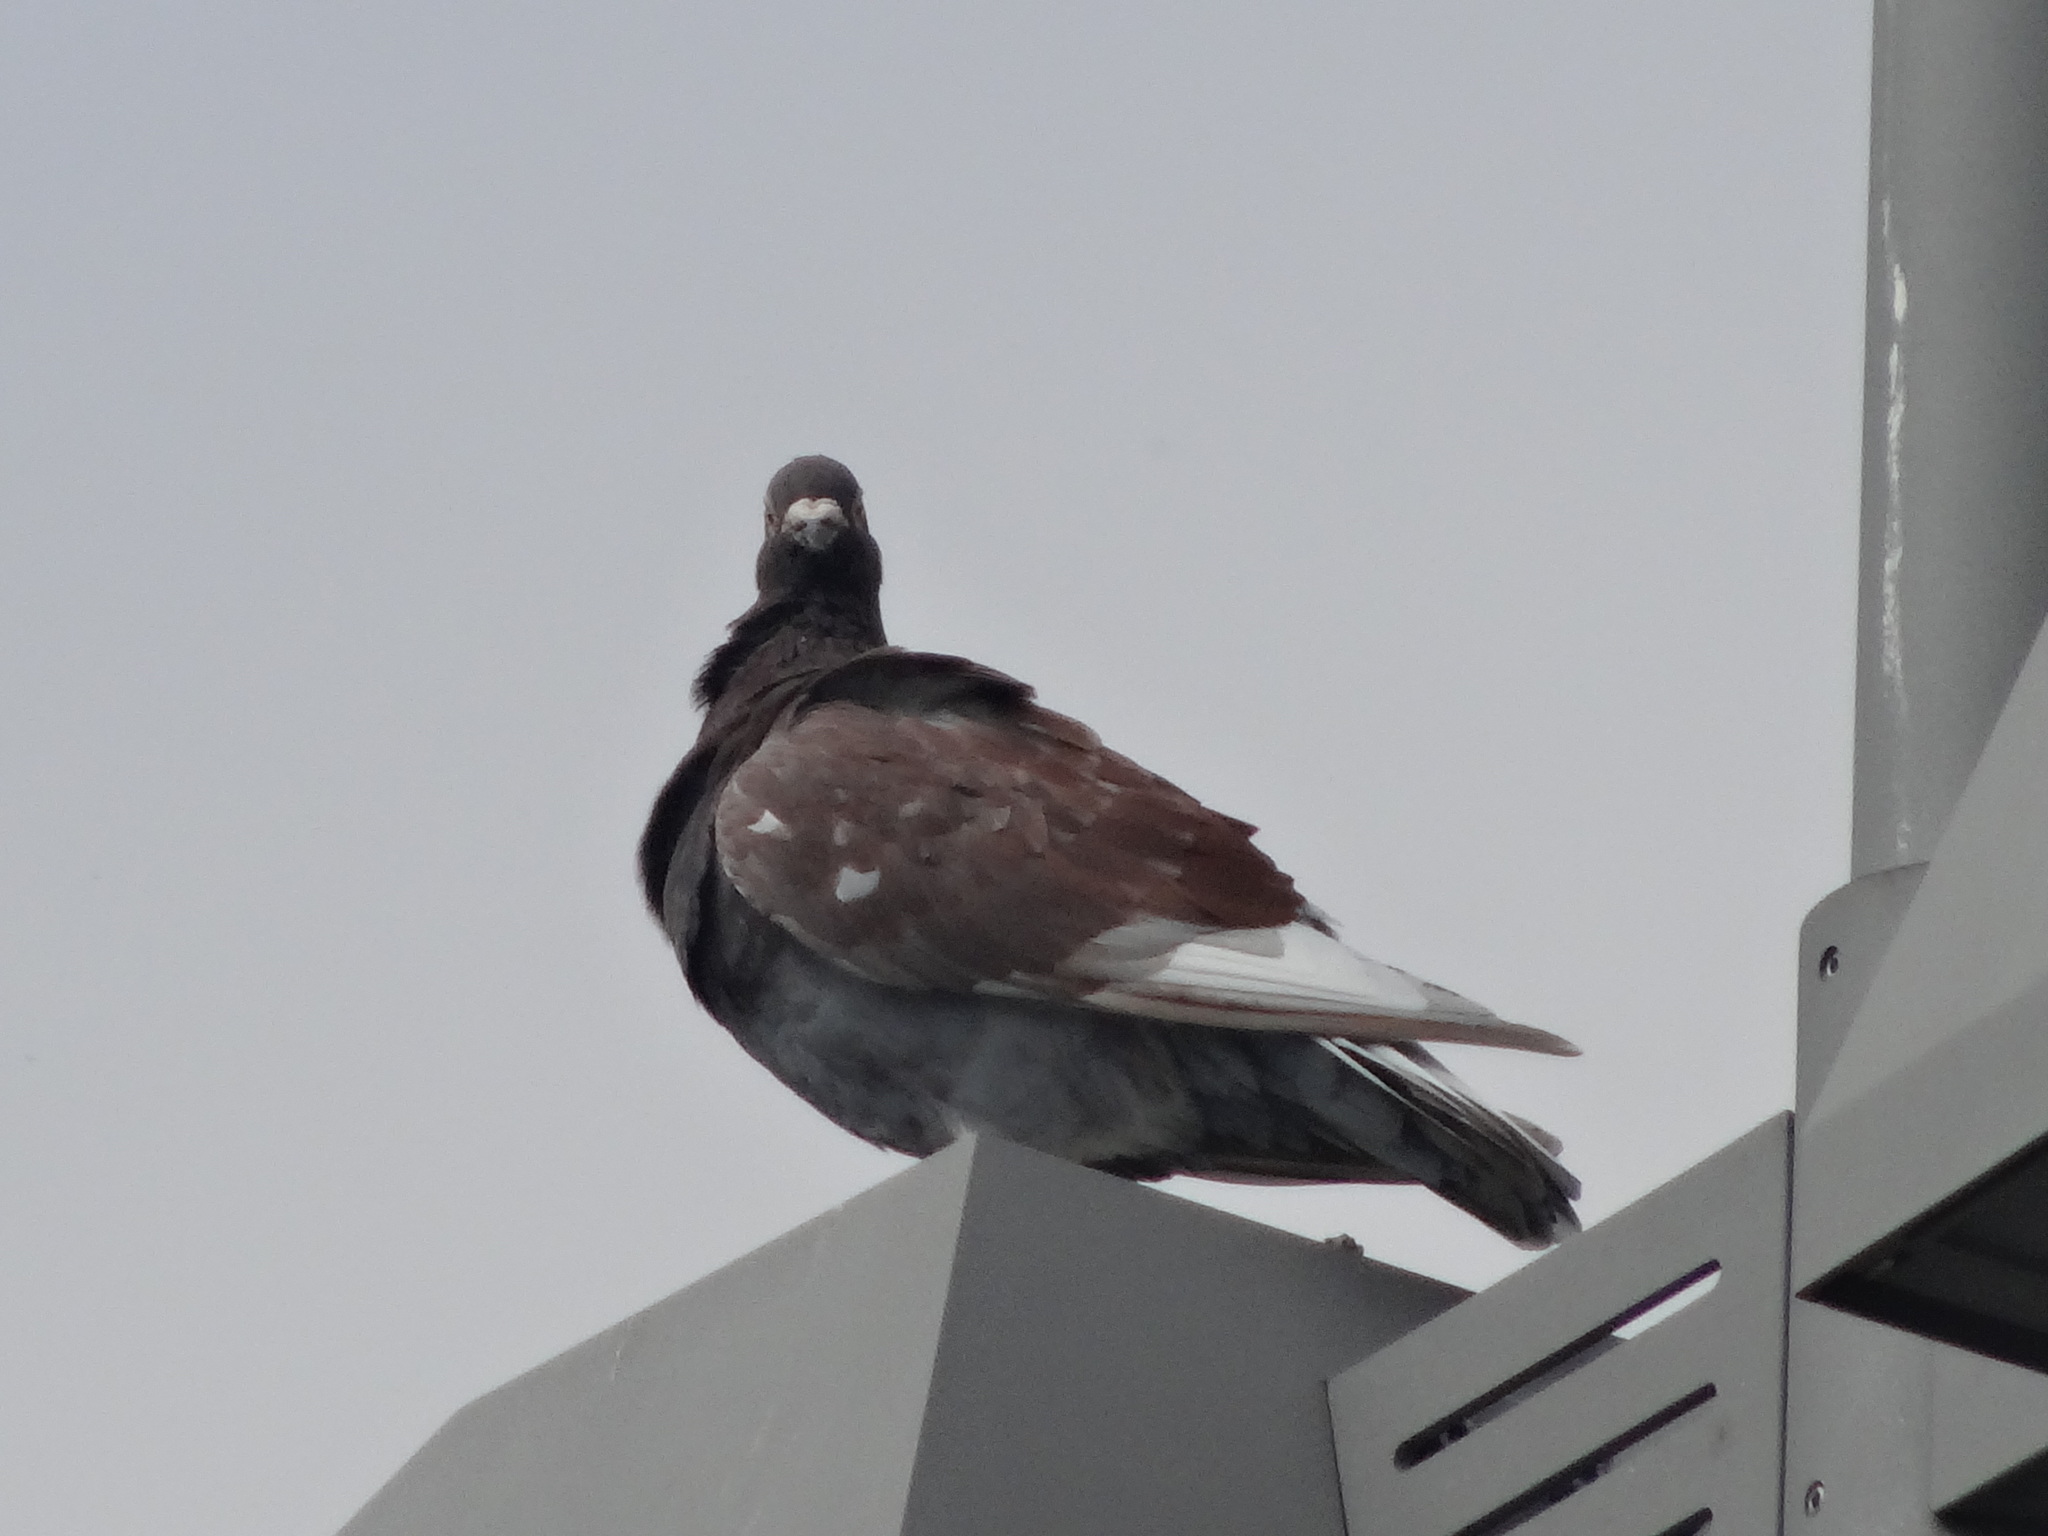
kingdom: Animalia
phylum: Chordata
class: Aves
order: Columbiformes
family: Columbidae
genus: Columba
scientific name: Columba livia
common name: Rock pigeon
